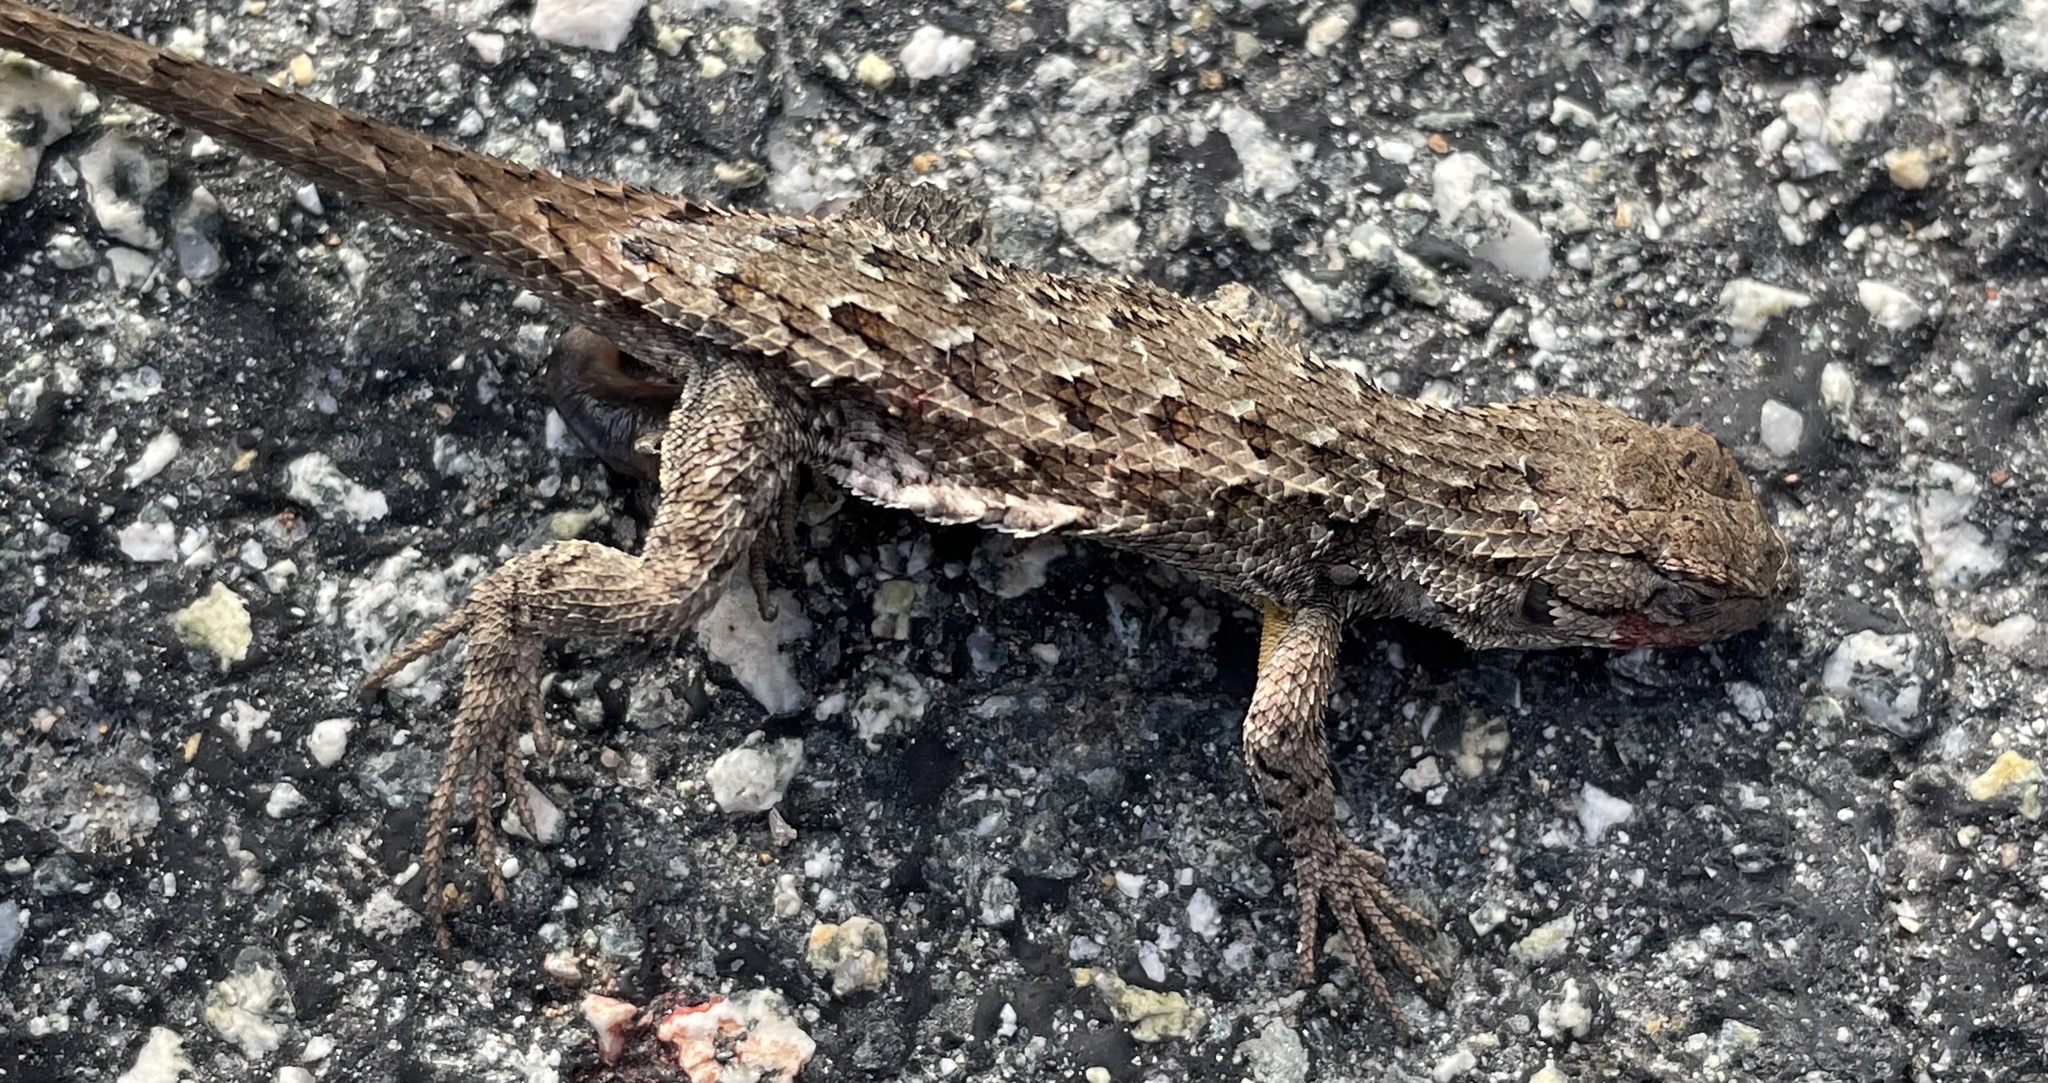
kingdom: Animalia
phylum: Chordata
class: Squamata
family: Phrynosomatidae
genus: Sceloporus
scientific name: Sceloporus occidentalis
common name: Western fence lizard
